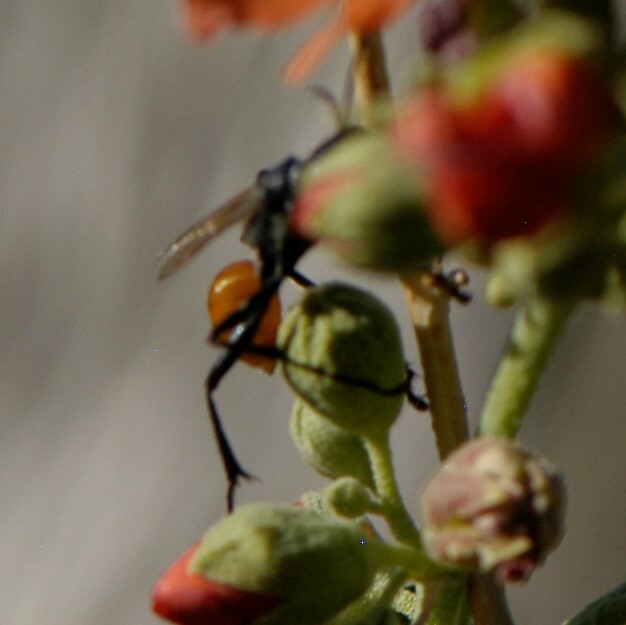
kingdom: Animalia
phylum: Arthropoda
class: Insecta
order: Hymenoptera
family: Sphecidae
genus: Prionyx
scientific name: Prionyx
